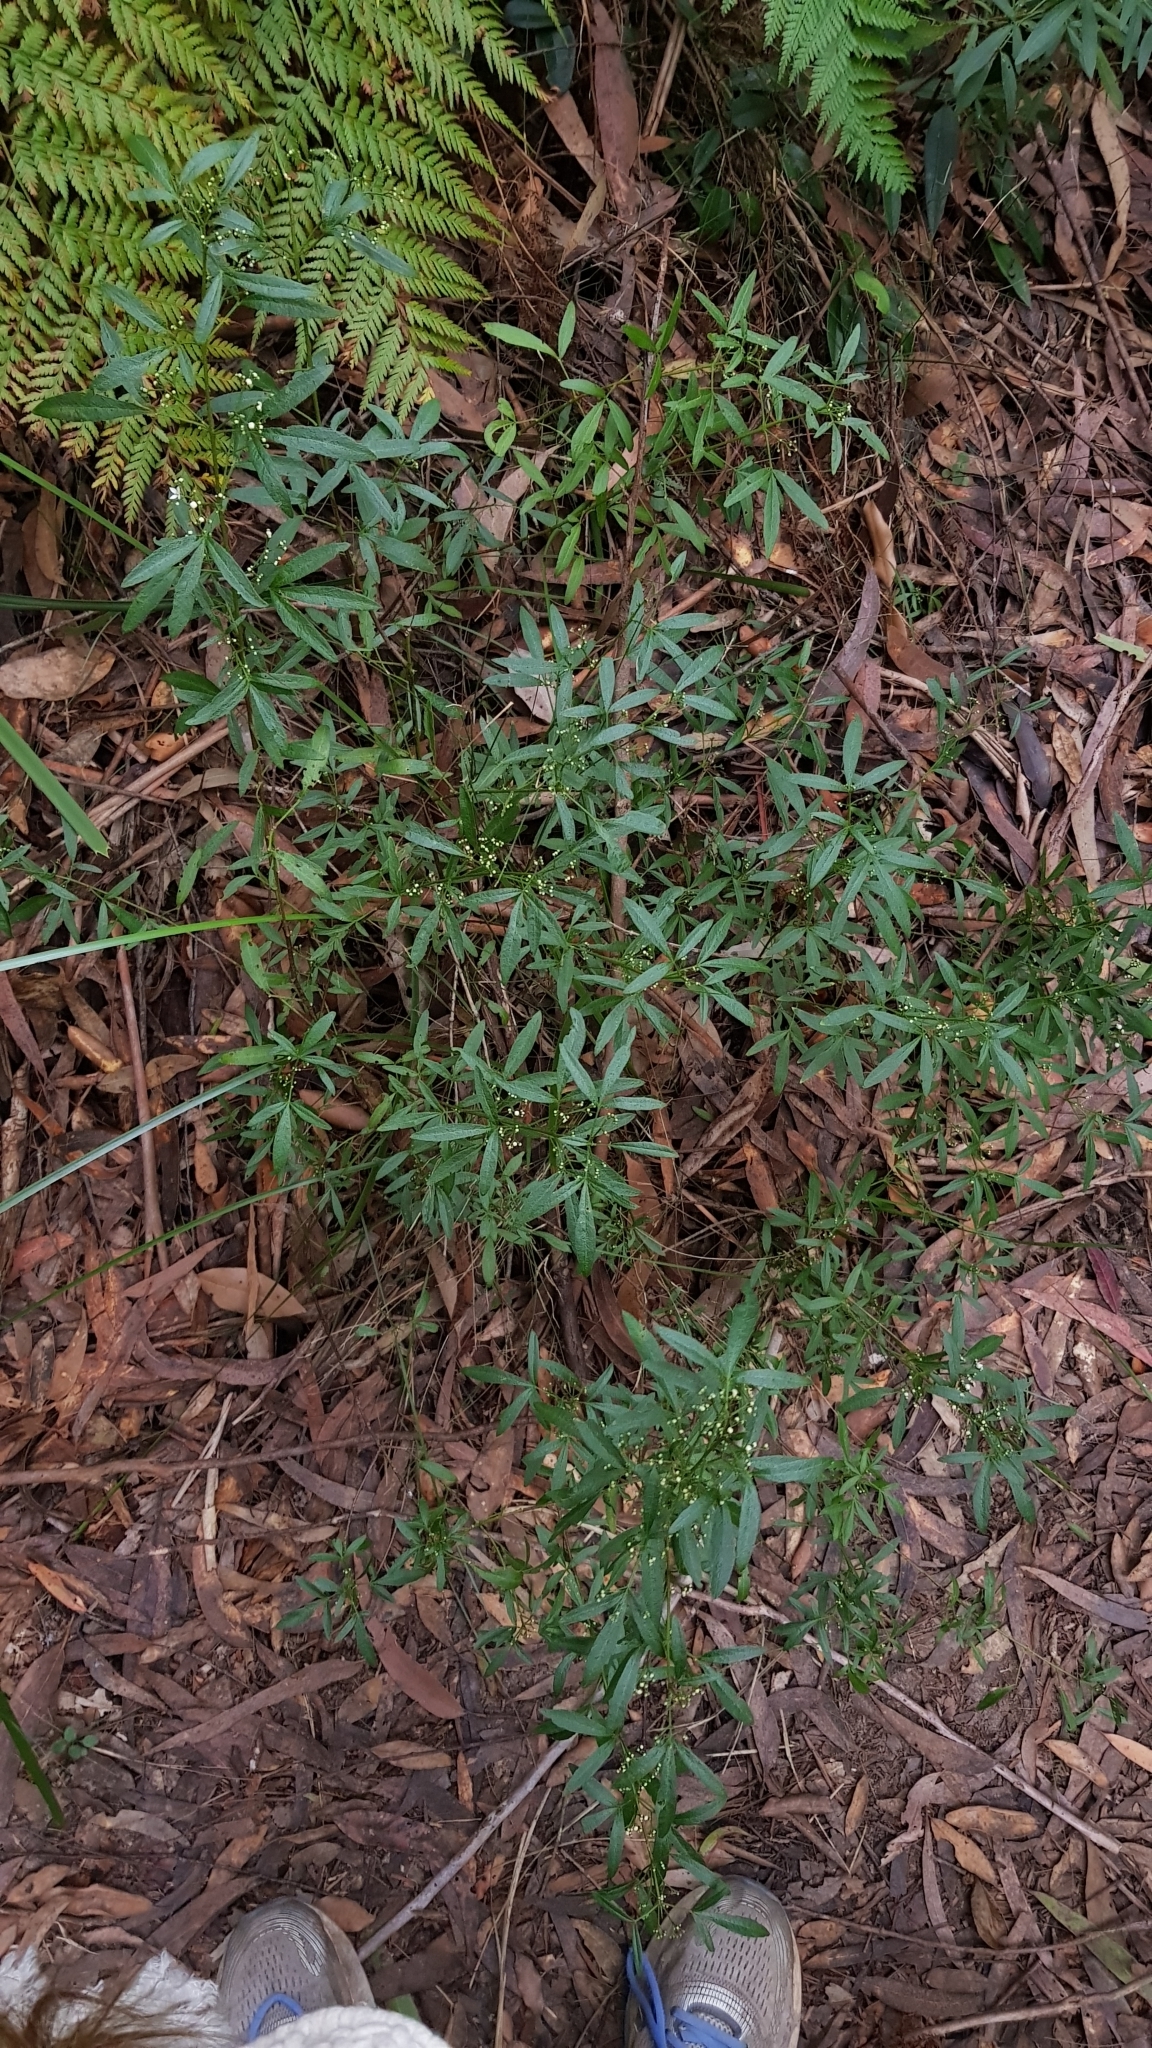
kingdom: Plantae
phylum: Tracheophyta
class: Magnoliopsida
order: Sapindales
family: Rutaceae
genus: Zieria
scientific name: Zieria smithii
